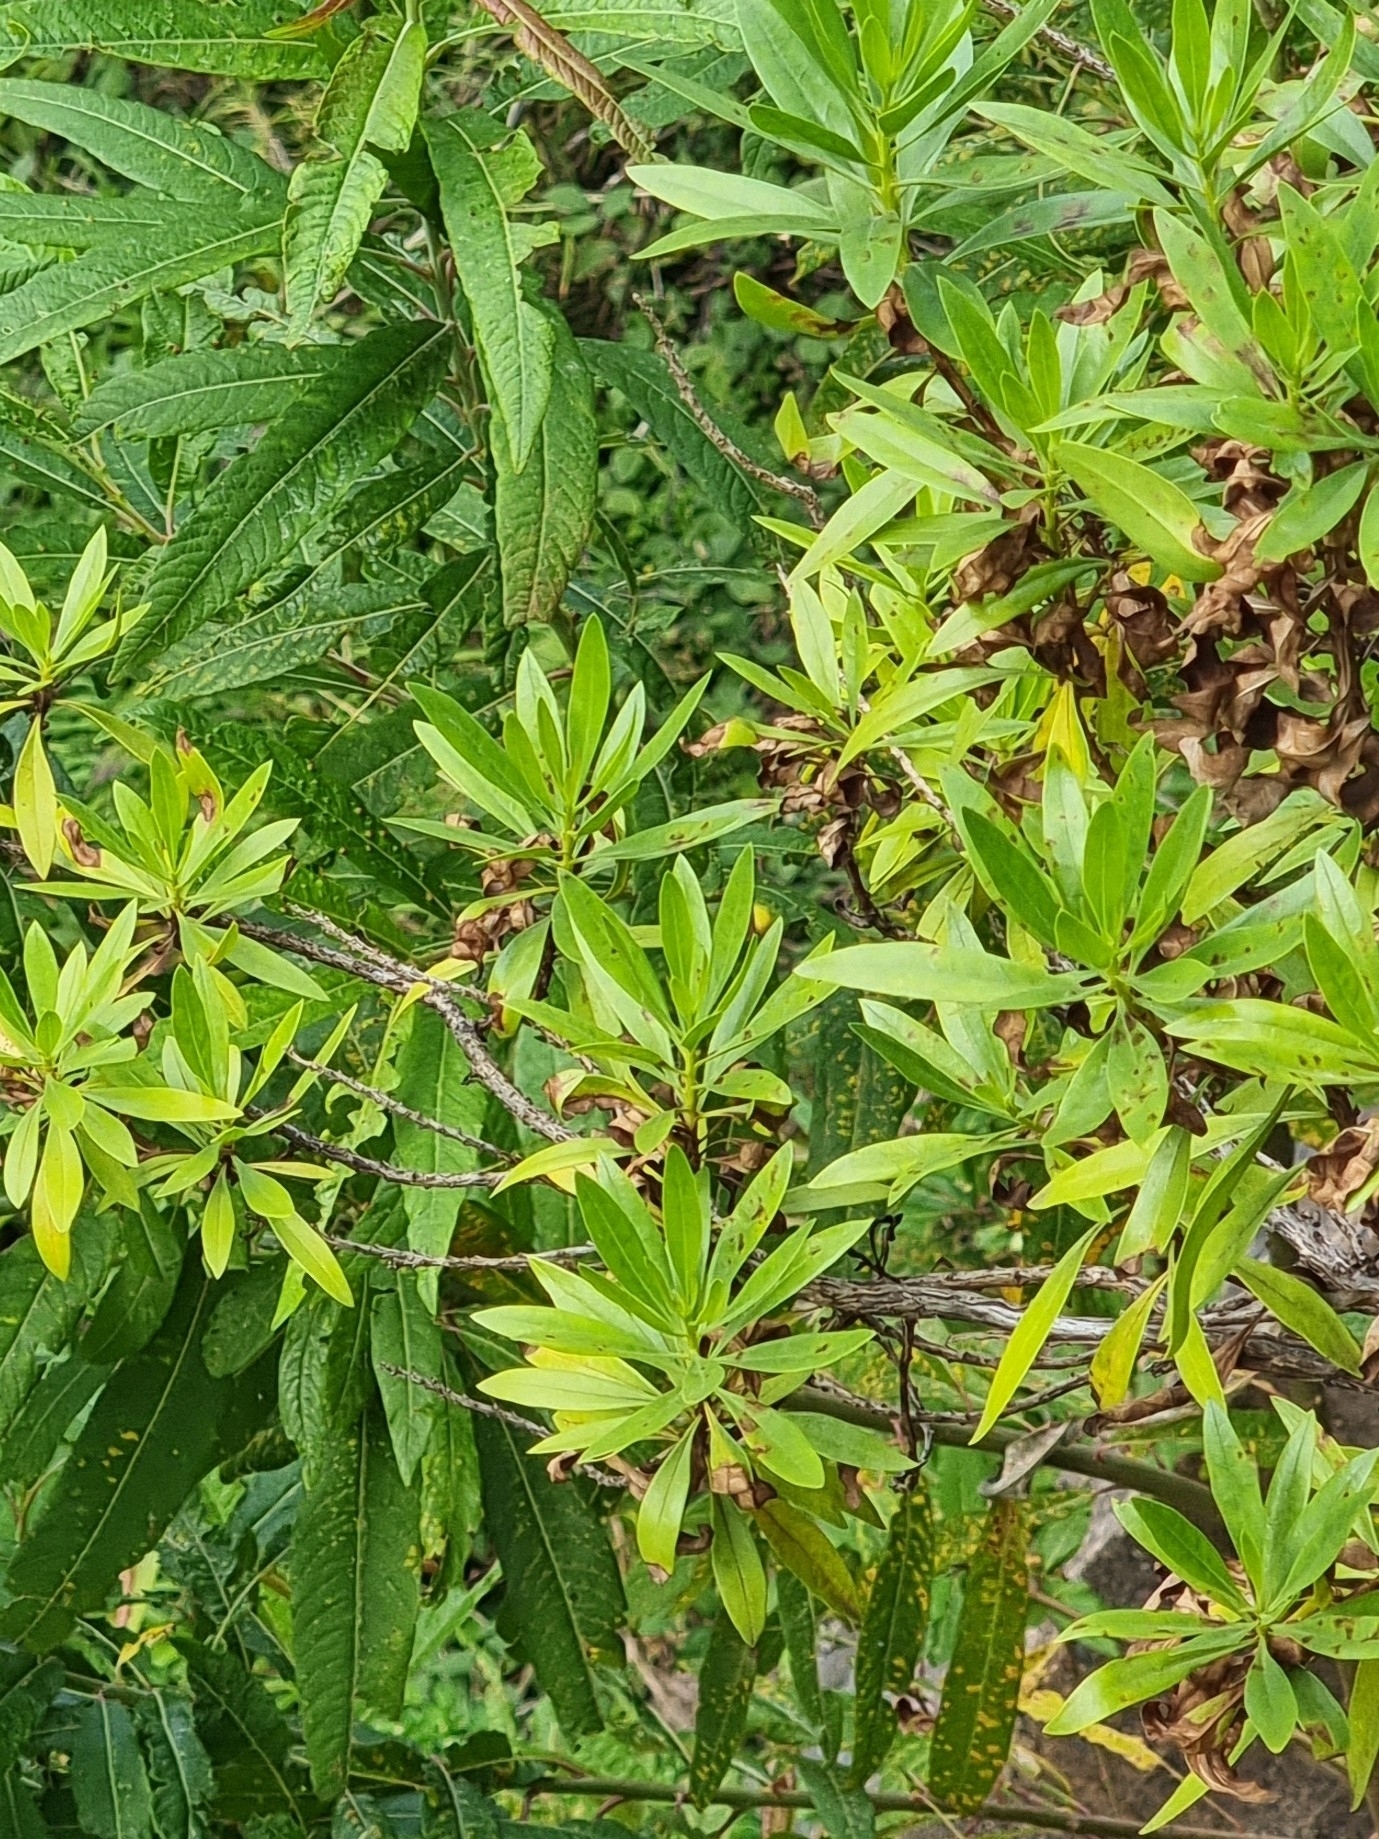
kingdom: Plantae
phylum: Tracheophyta
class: Magnoliopsida
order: Lamiales
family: Plantaginaceae
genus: Globularia
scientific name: Globularia salicina
